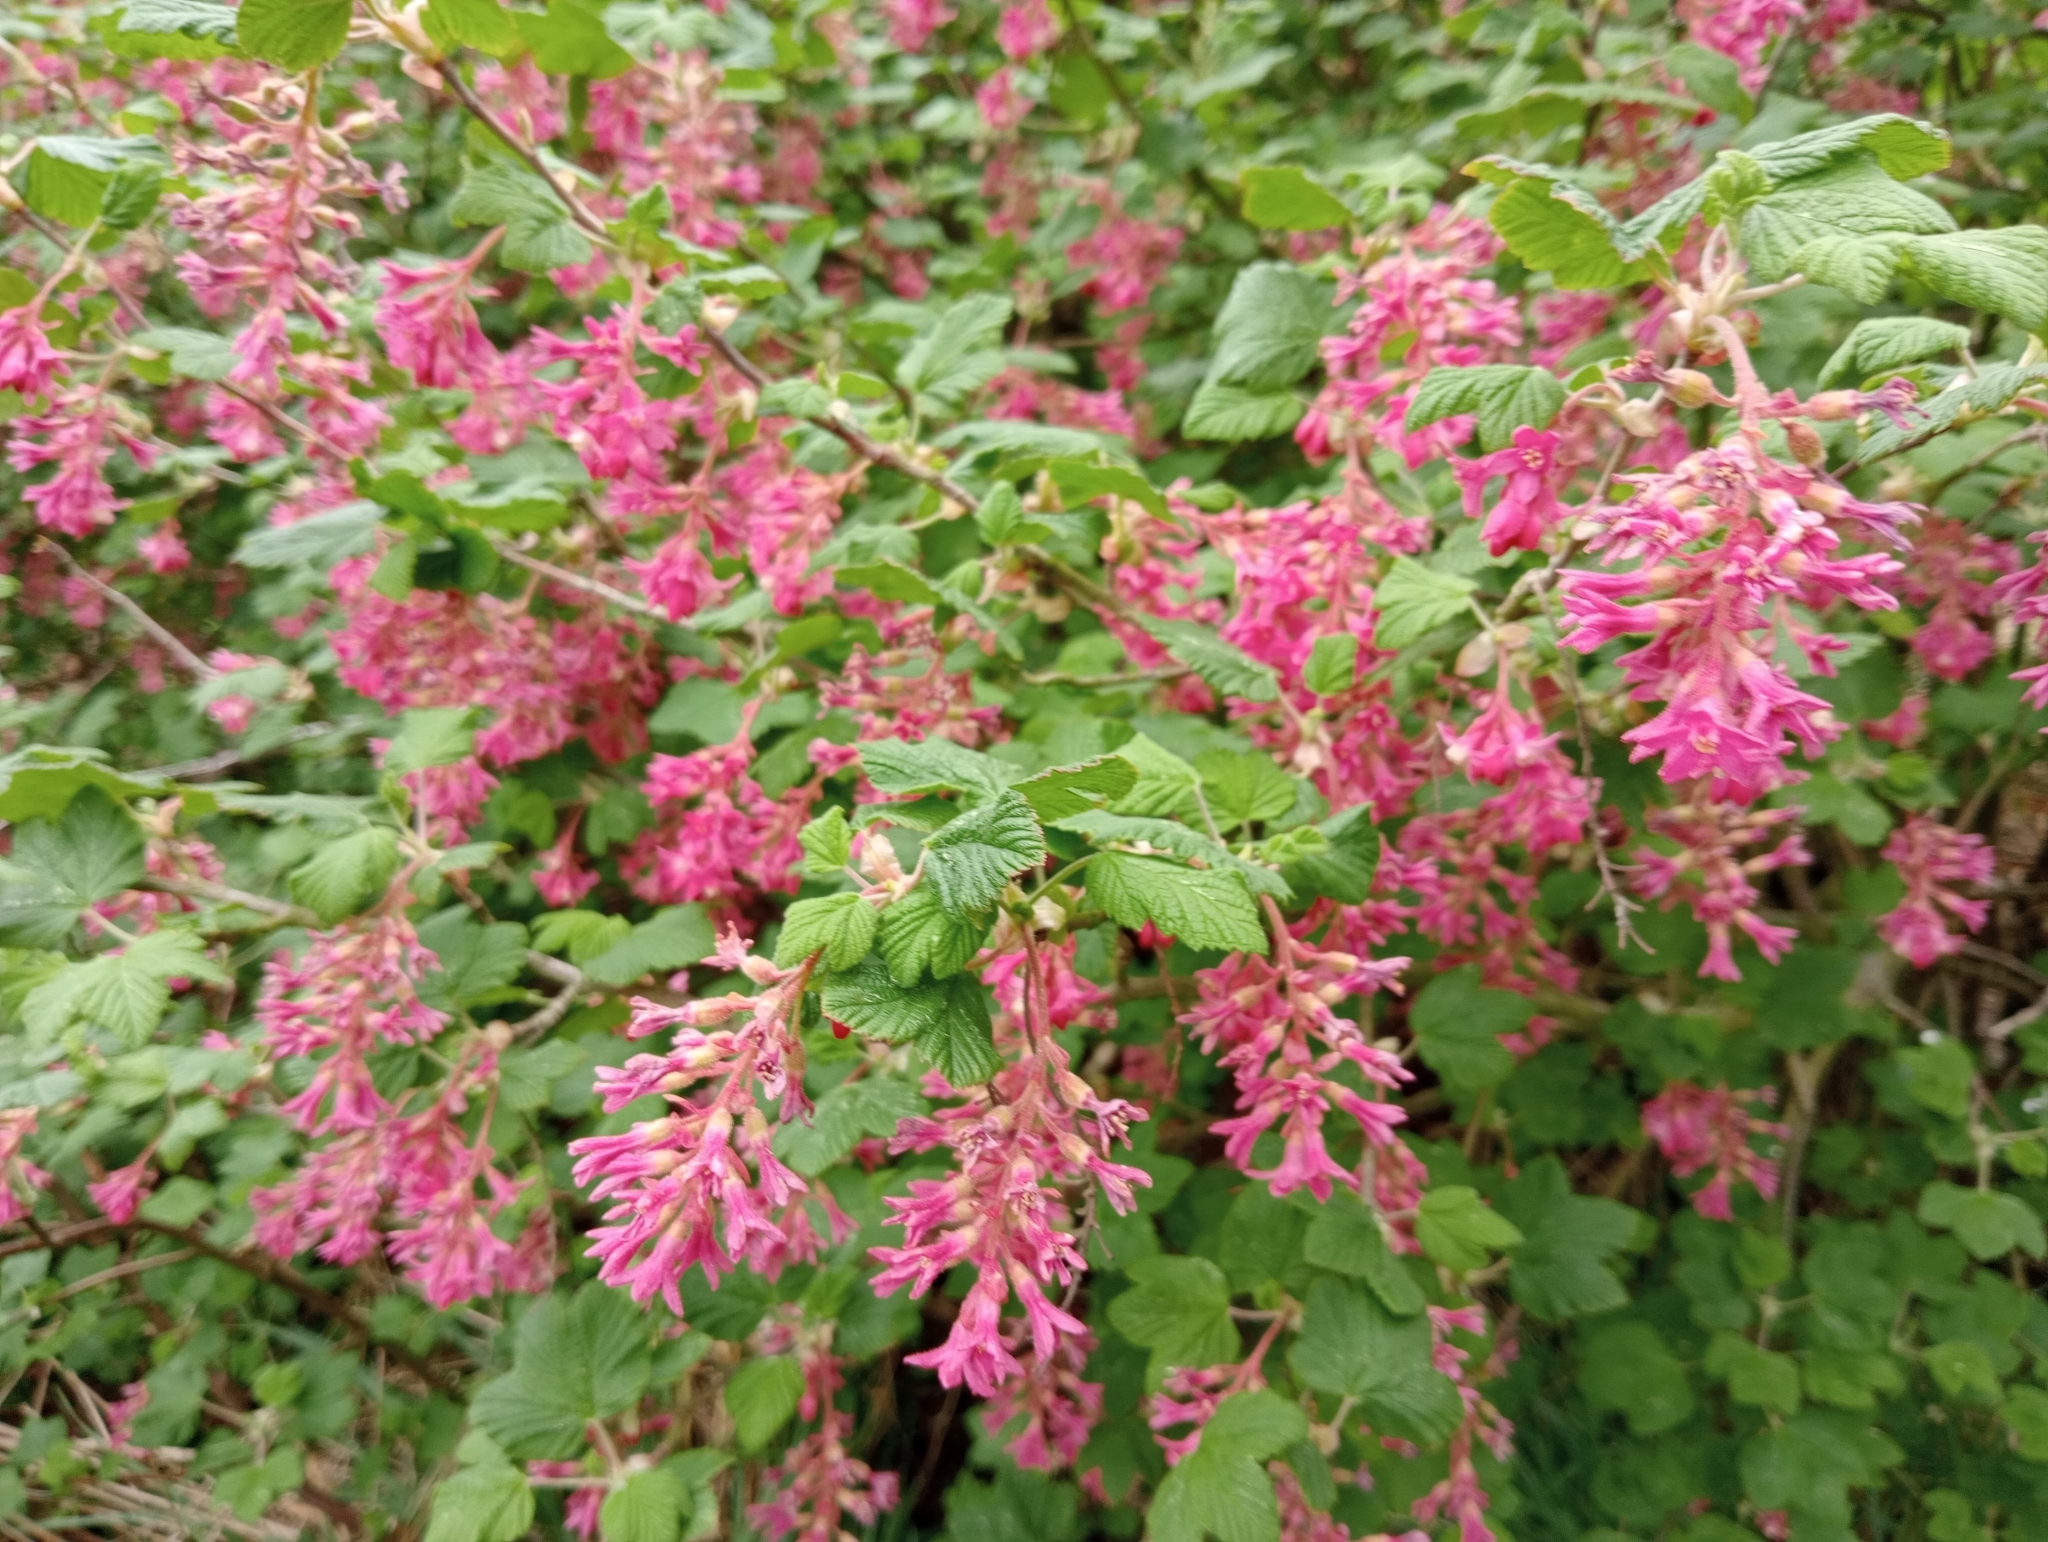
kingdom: Plantae
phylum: Tracheophyta
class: Magnoliopsida
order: Saxifragales
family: Grossulariaceae
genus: Ribes
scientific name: Ribes sanguineum
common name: Flowering currant
